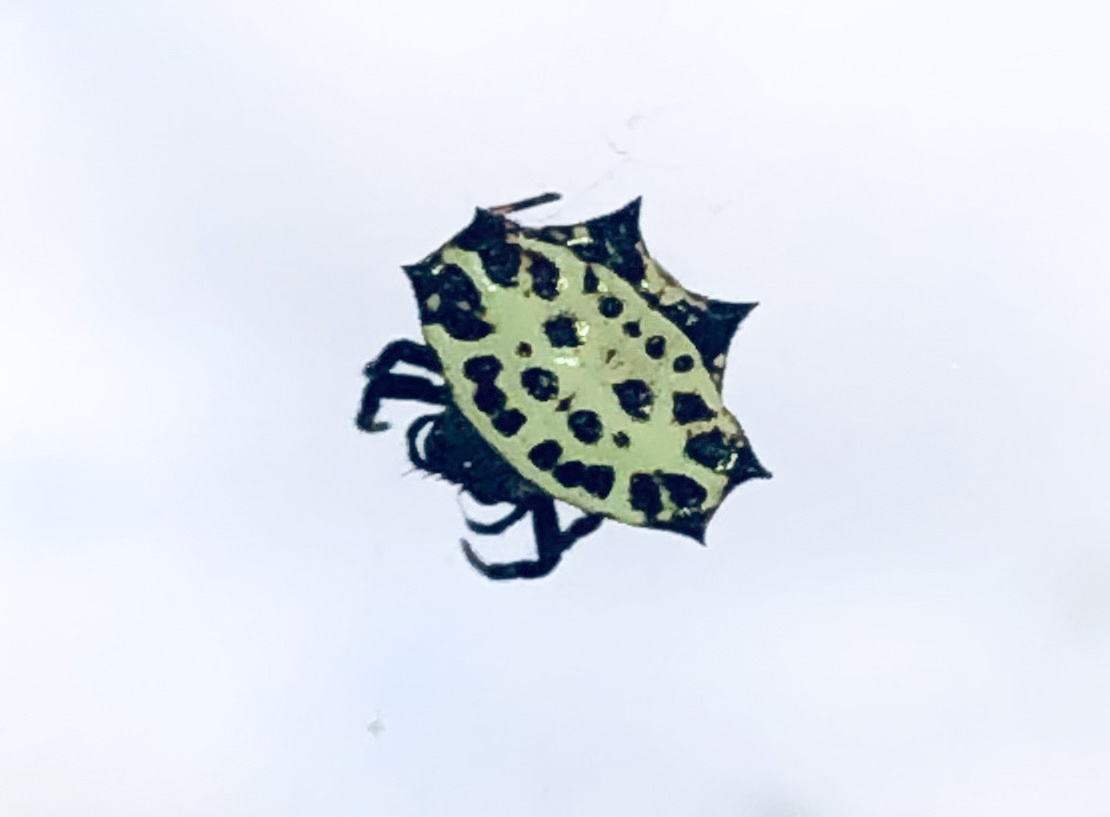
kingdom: Animalia
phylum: Arthropoda
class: Arachnida
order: Araneae
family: Araneidae
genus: Gasteracantha
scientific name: Gasteracantha cancriformis
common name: Orb weavers
